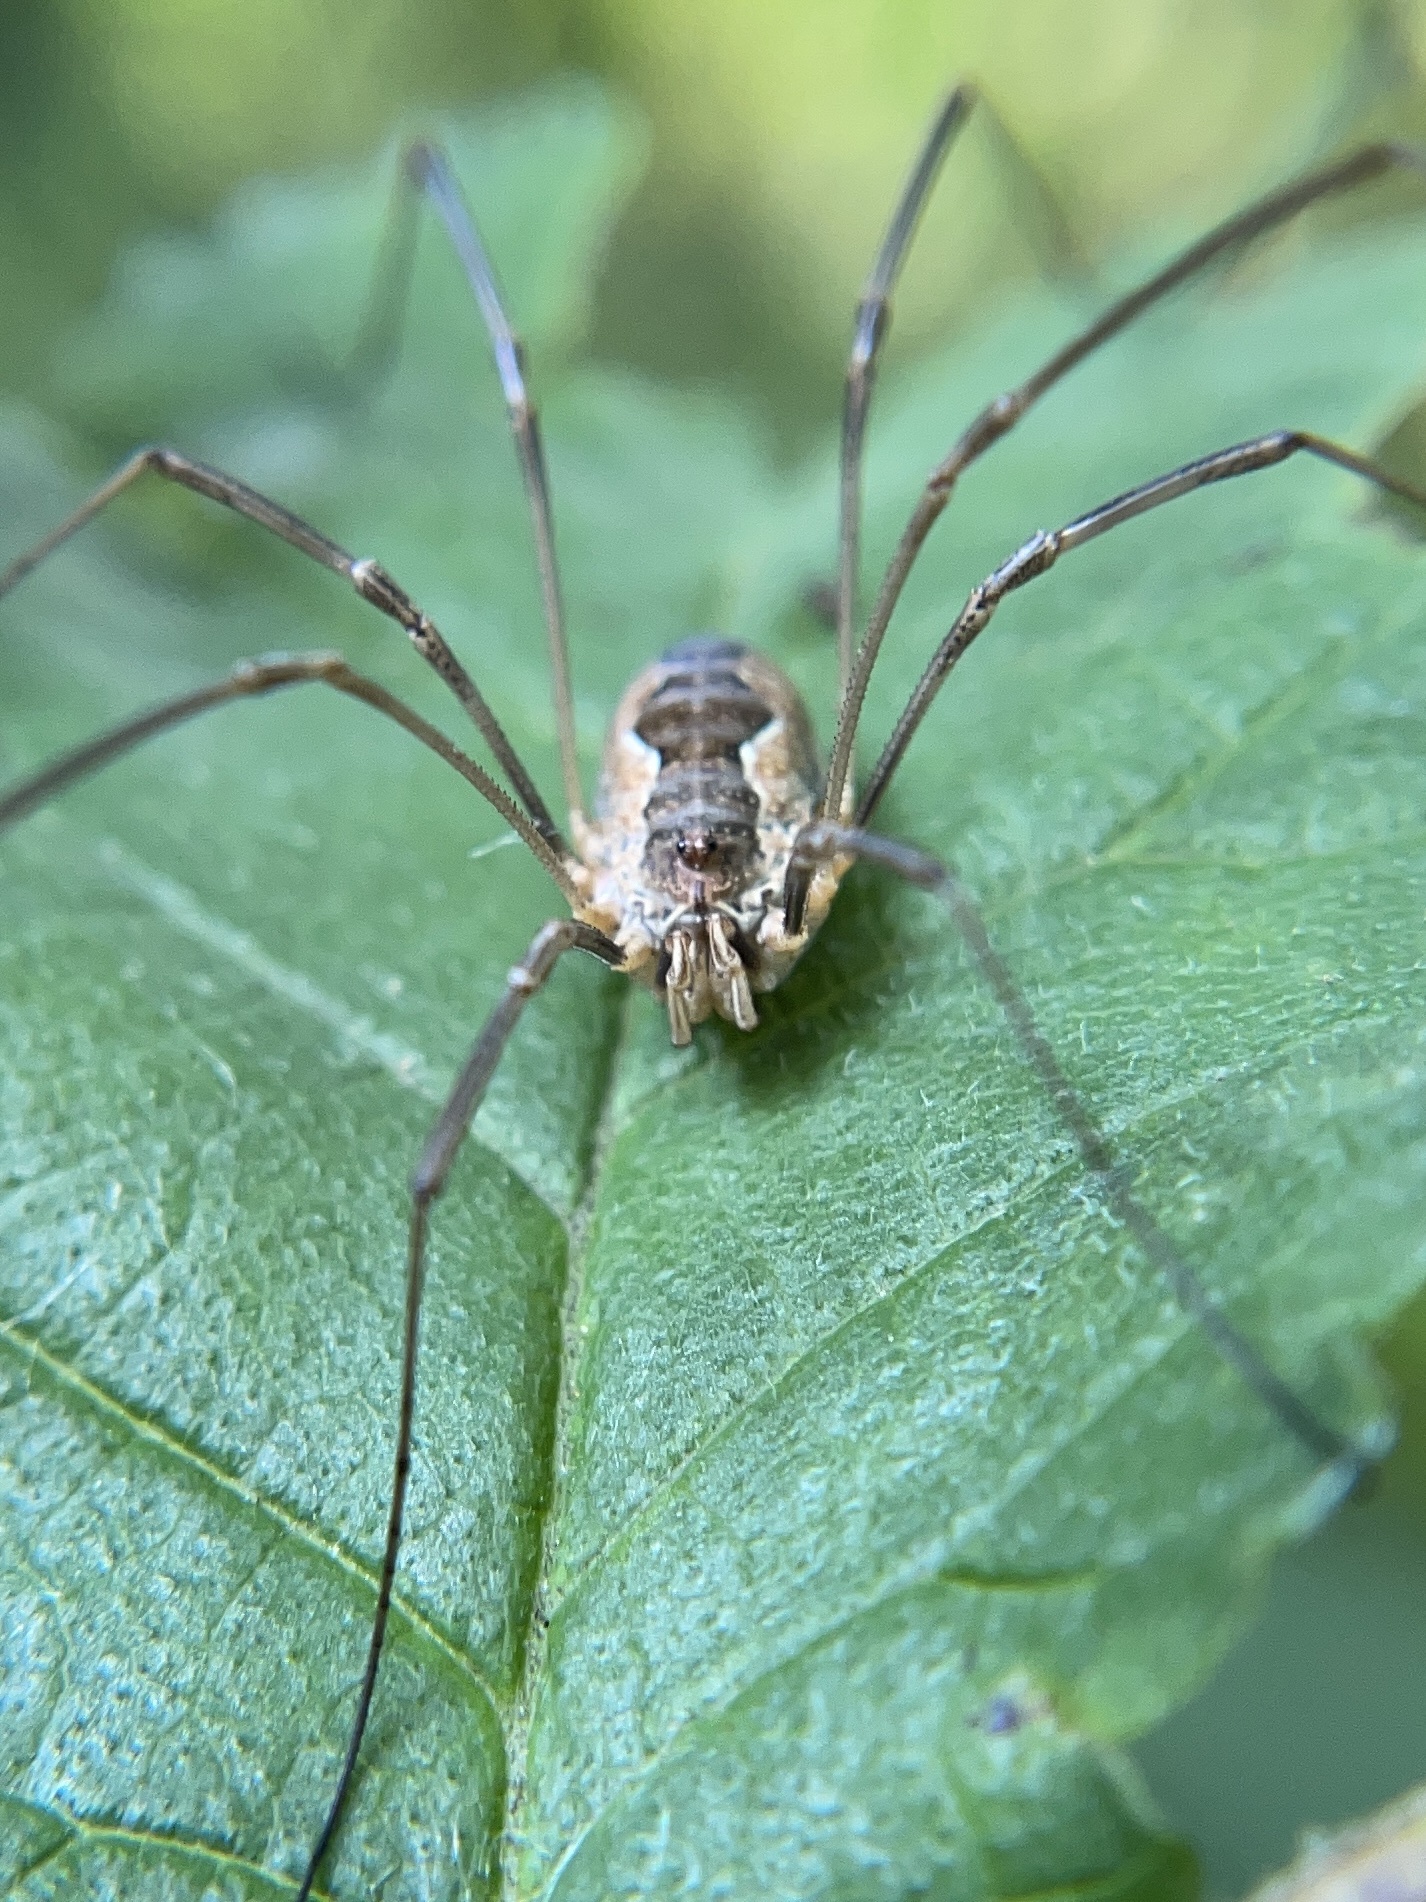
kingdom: Animalia
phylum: Arthropoda
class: Arachnida
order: Opiliones
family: Phalangiidae
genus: Phalangium
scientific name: Phalangium opilio
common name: Daddy longleg
